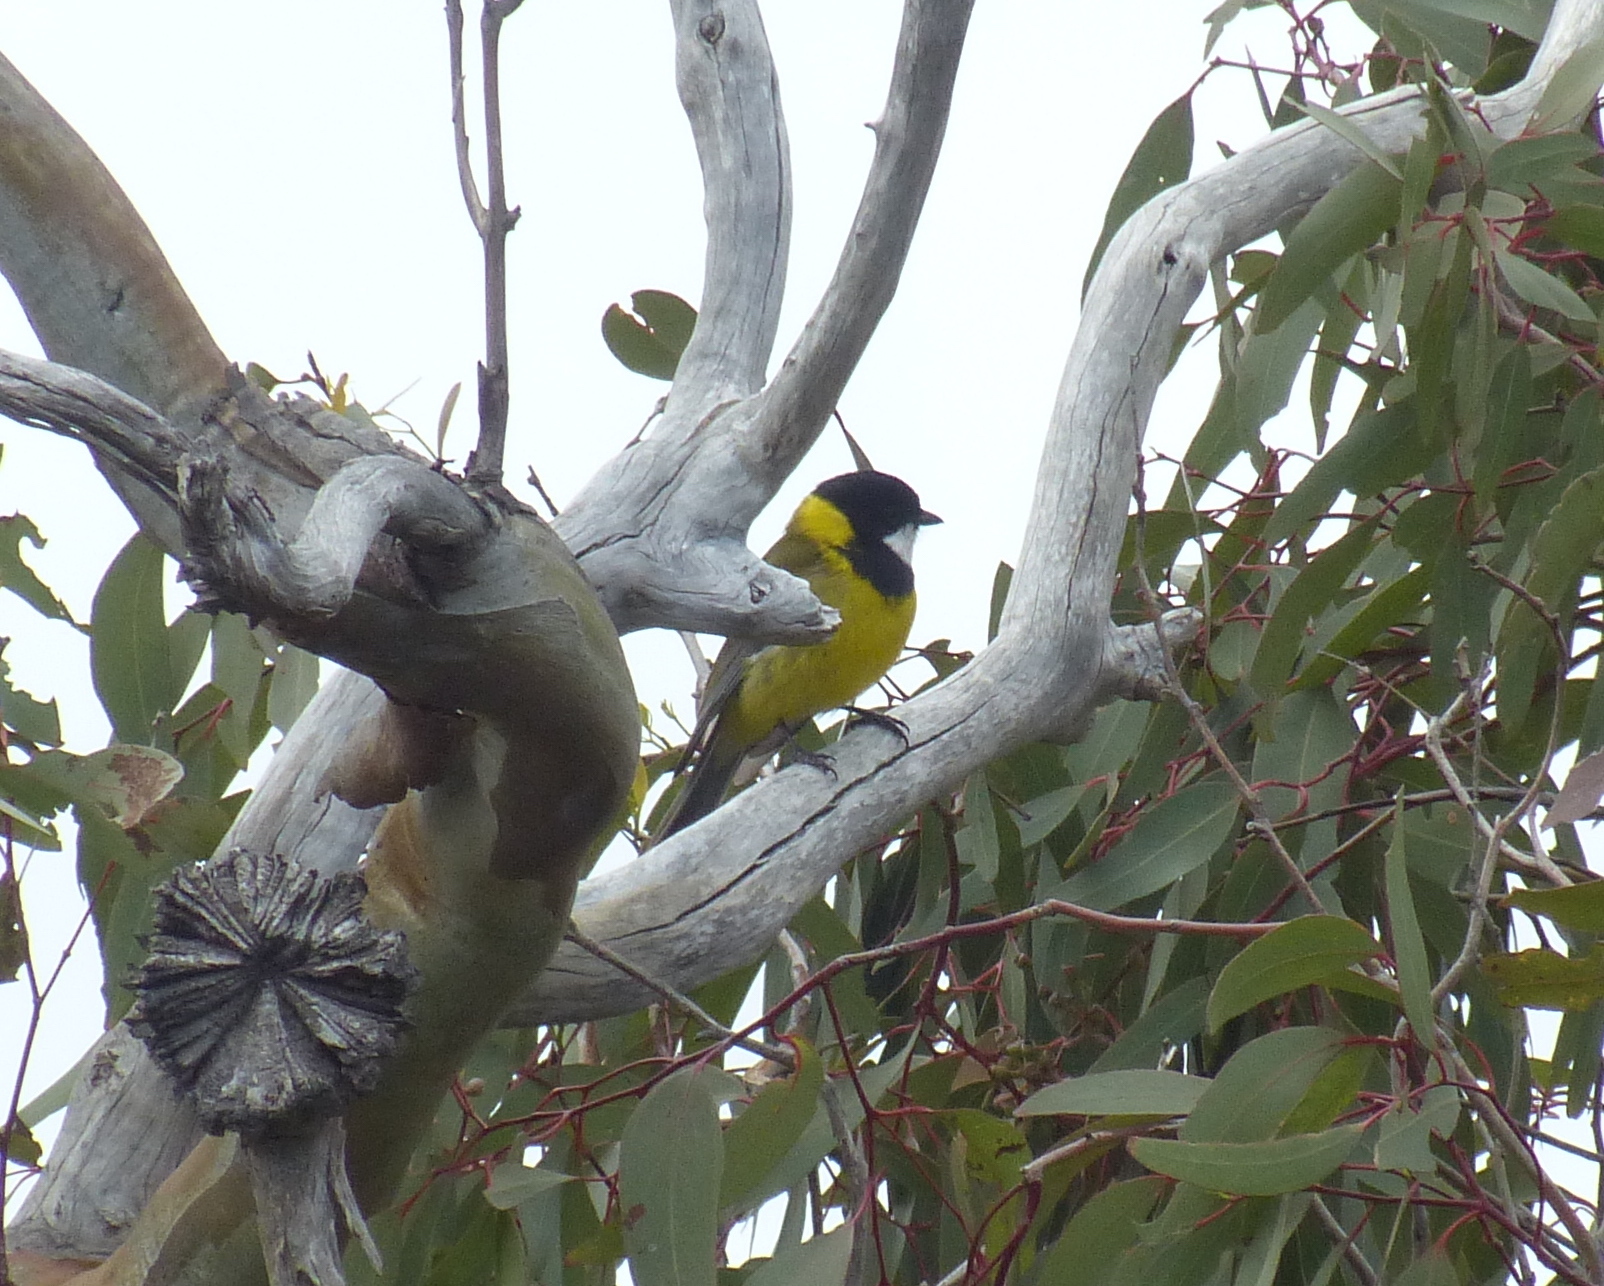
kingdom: Animalia
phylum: Chordata
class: Aves
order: Passeriformes
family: Pachycephalidae
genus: Pachycephala
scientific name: Pachycephala fuliginosa
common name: Western whistler
